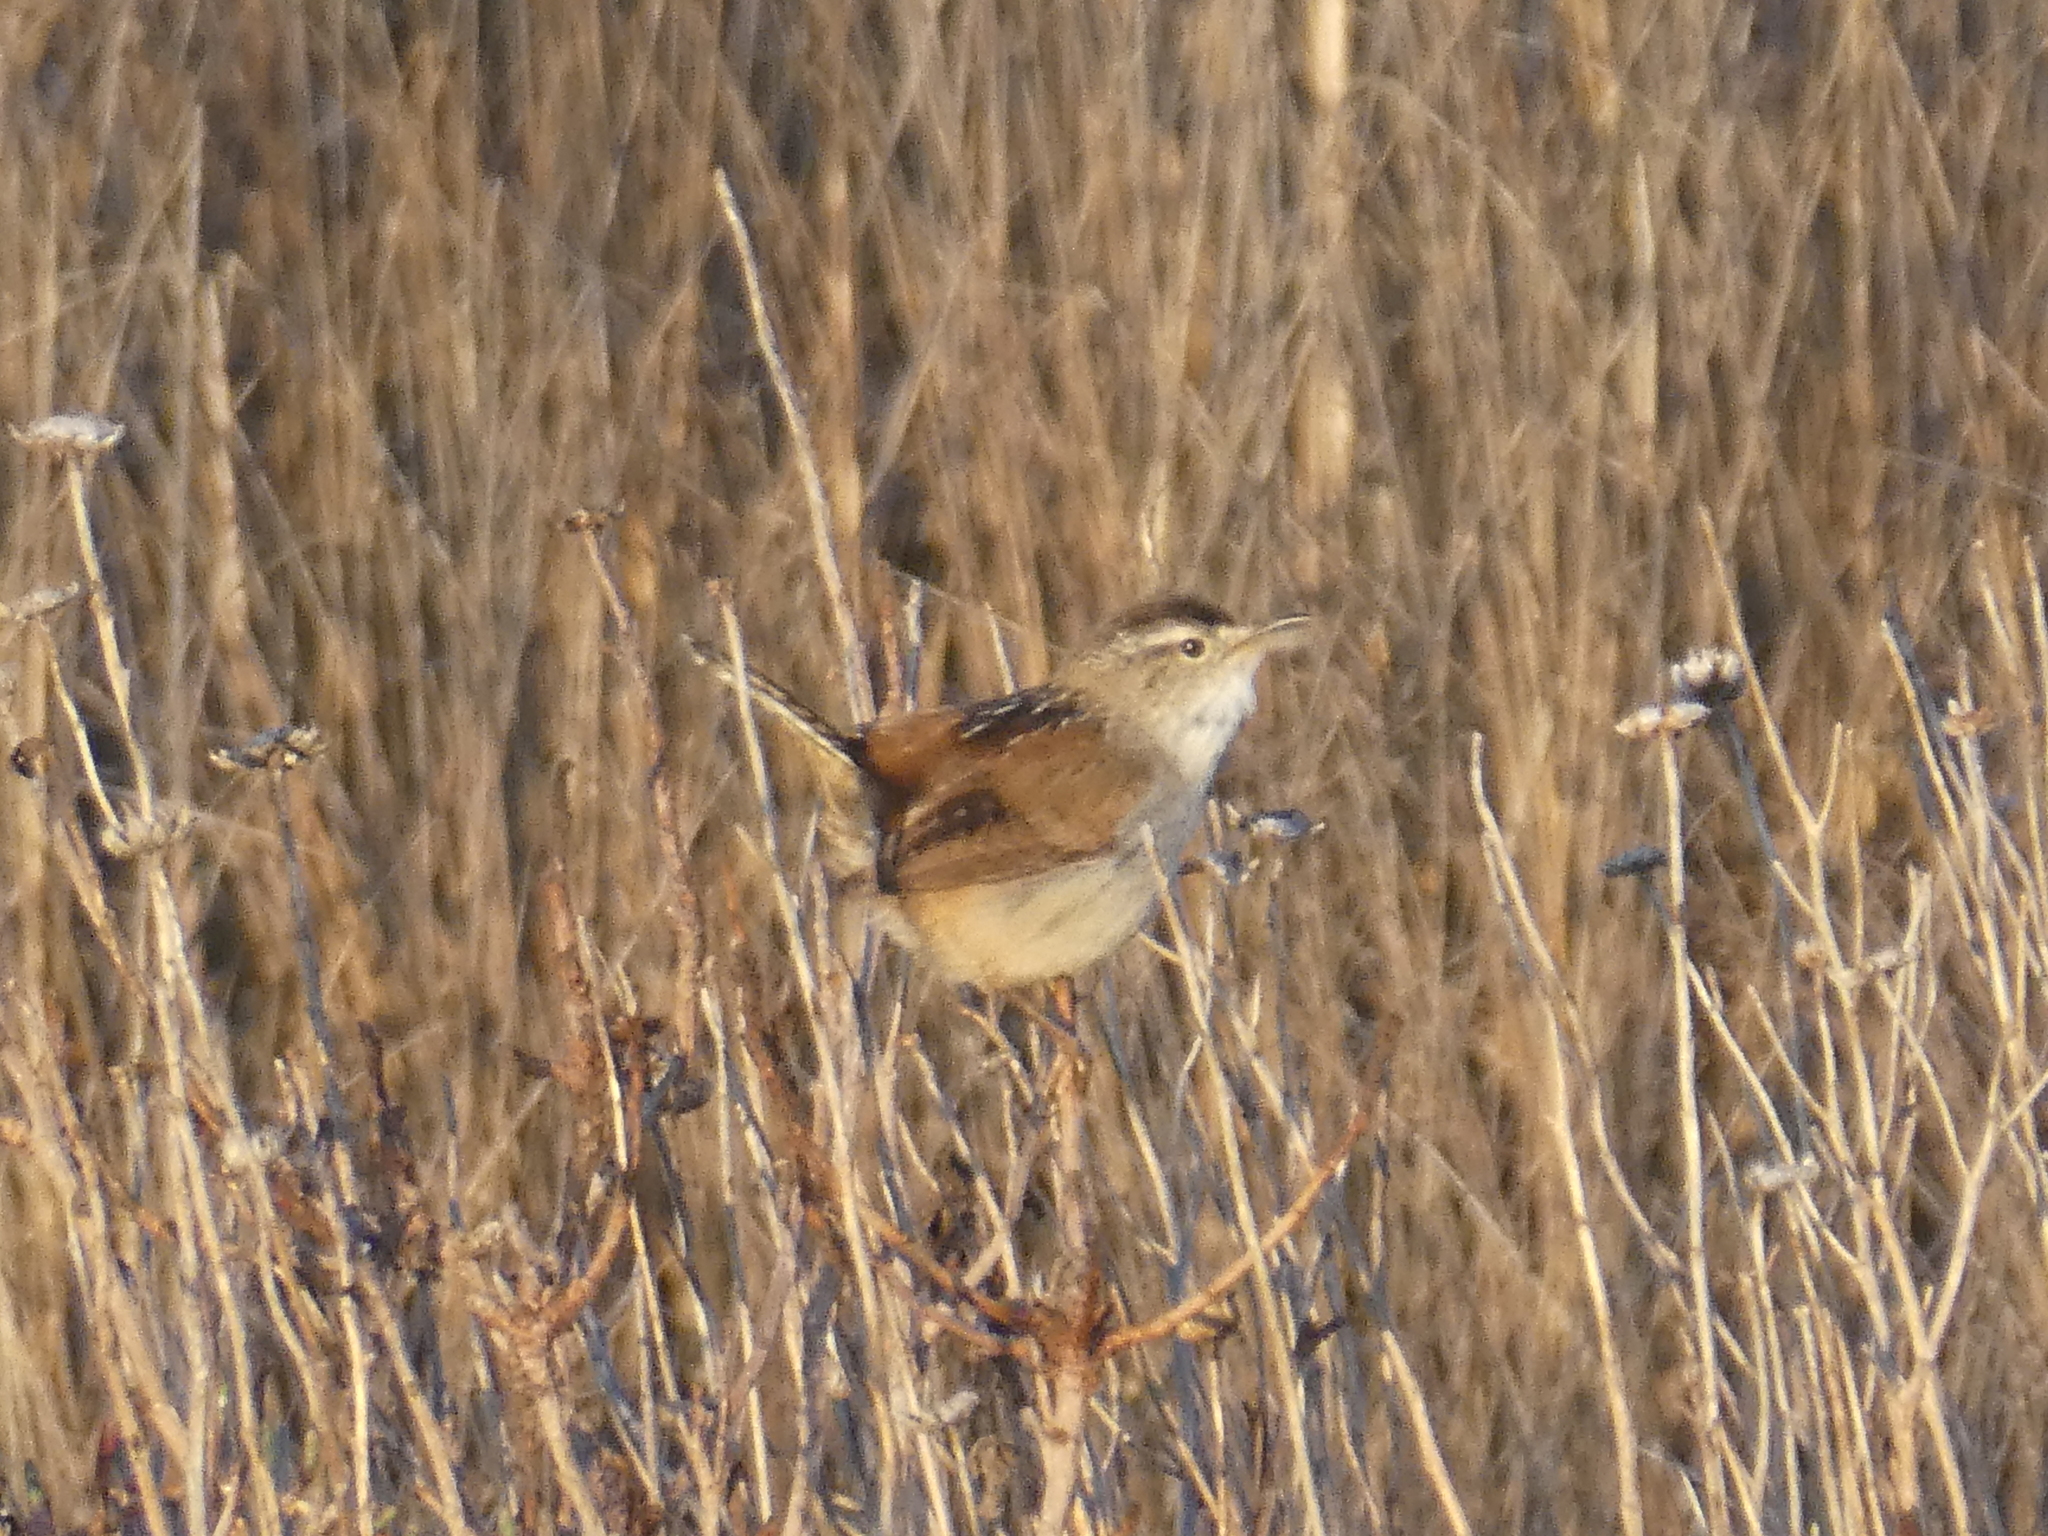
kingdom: Animalia
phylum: Chordata
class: Aves
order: Passeriformes
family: Troglodytidae
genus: Cistothorus
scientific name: Cistothorus palustris
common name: Marsh wren
